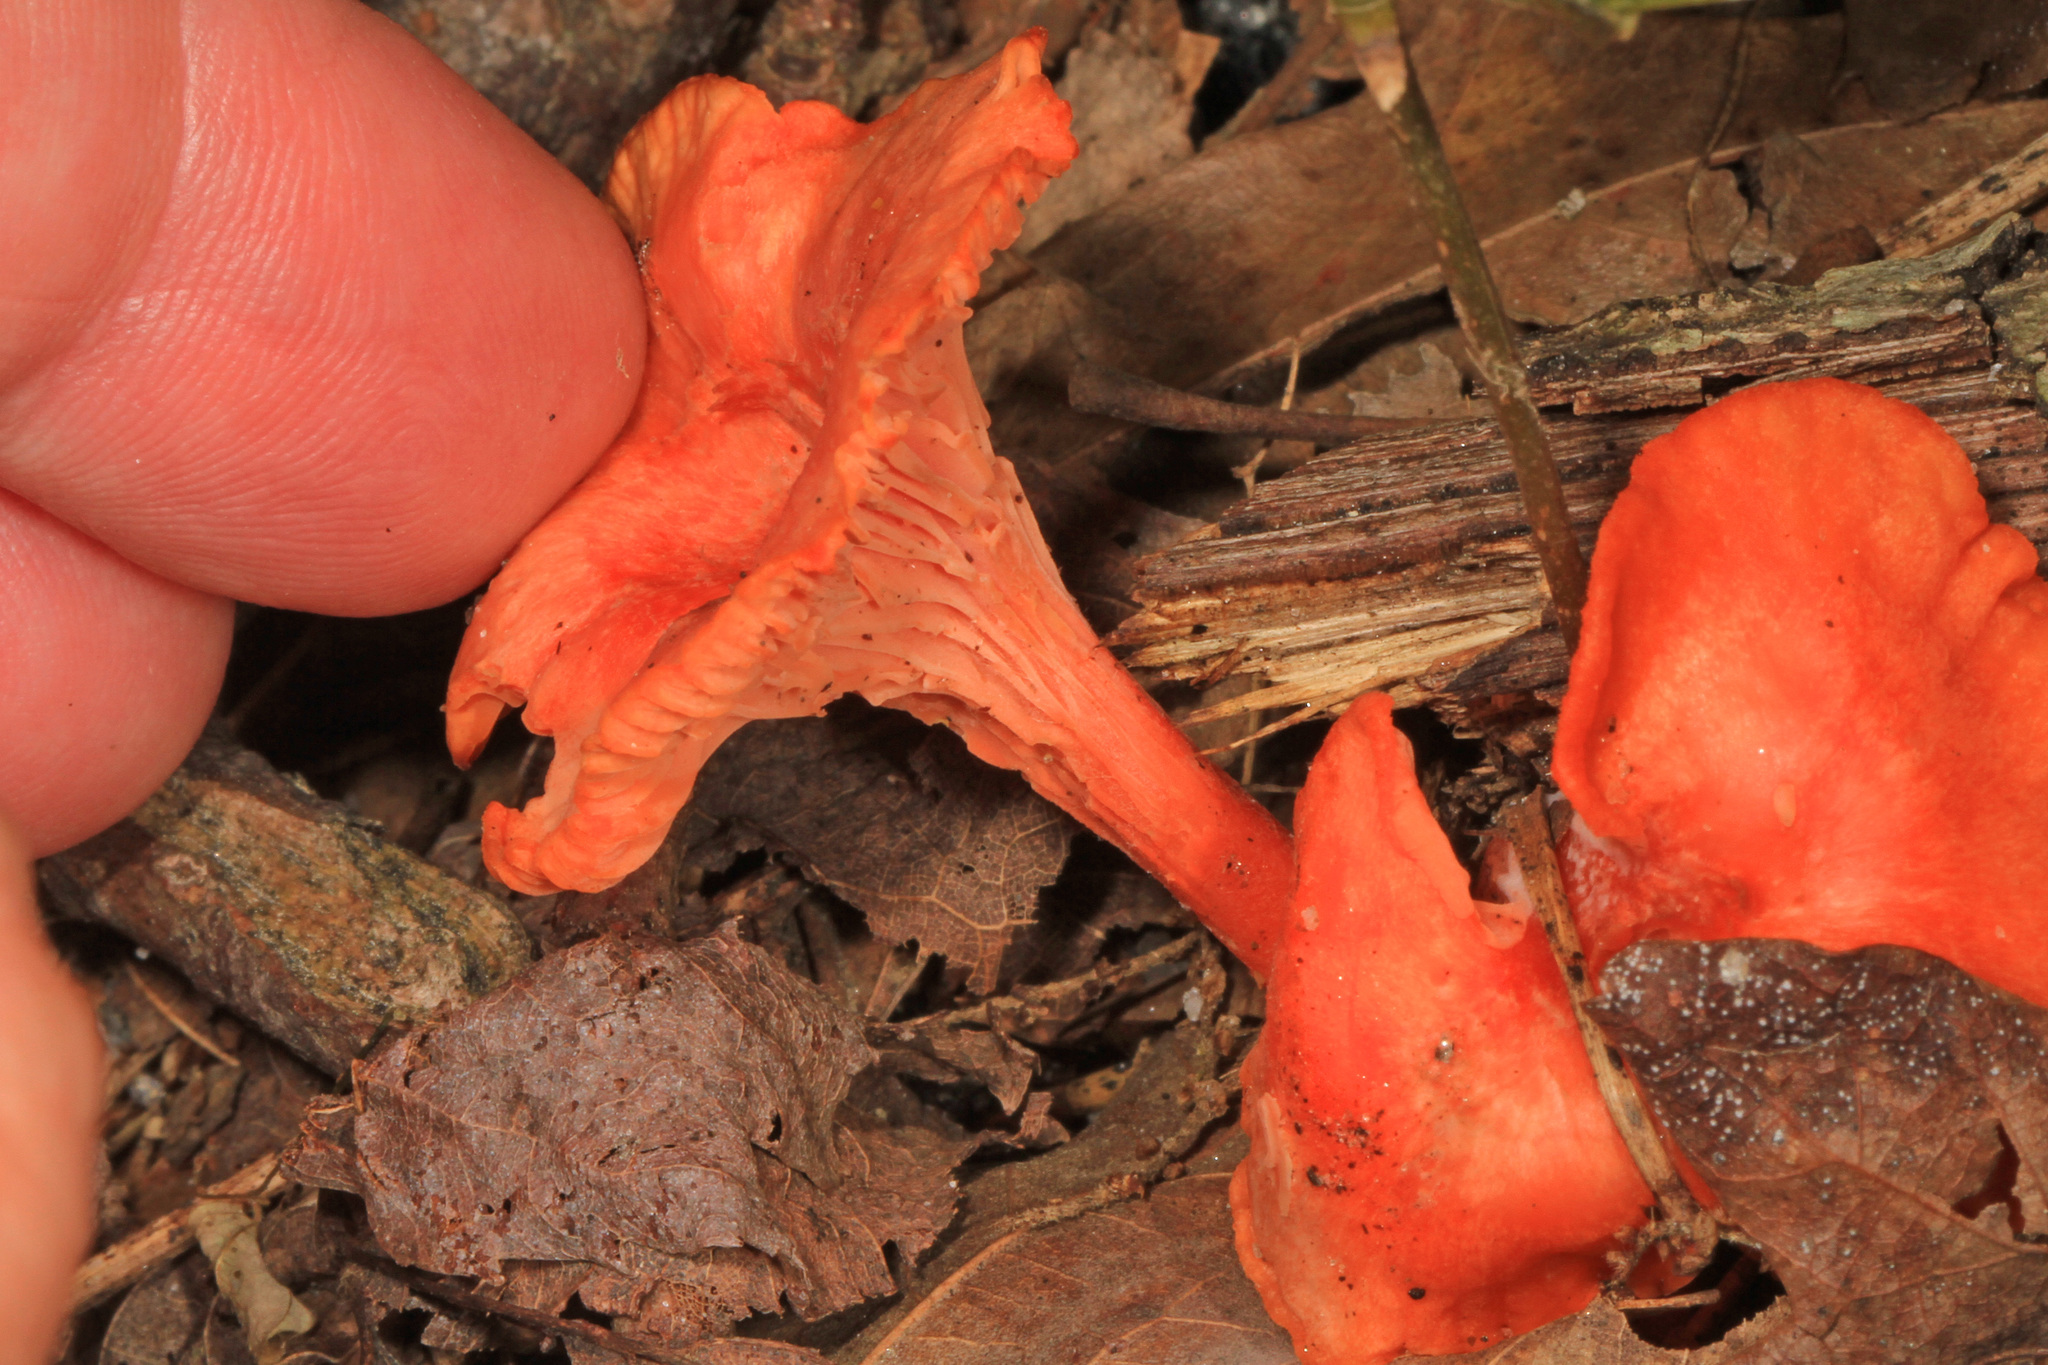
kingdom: Fungi
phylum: Basidiomycota
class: Agaricomycetes
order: Cantharellales
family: Hydnaceae
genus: Cantharellus
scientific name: Cantharellus cinnabarinus
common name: Cinnabar chanterelle
